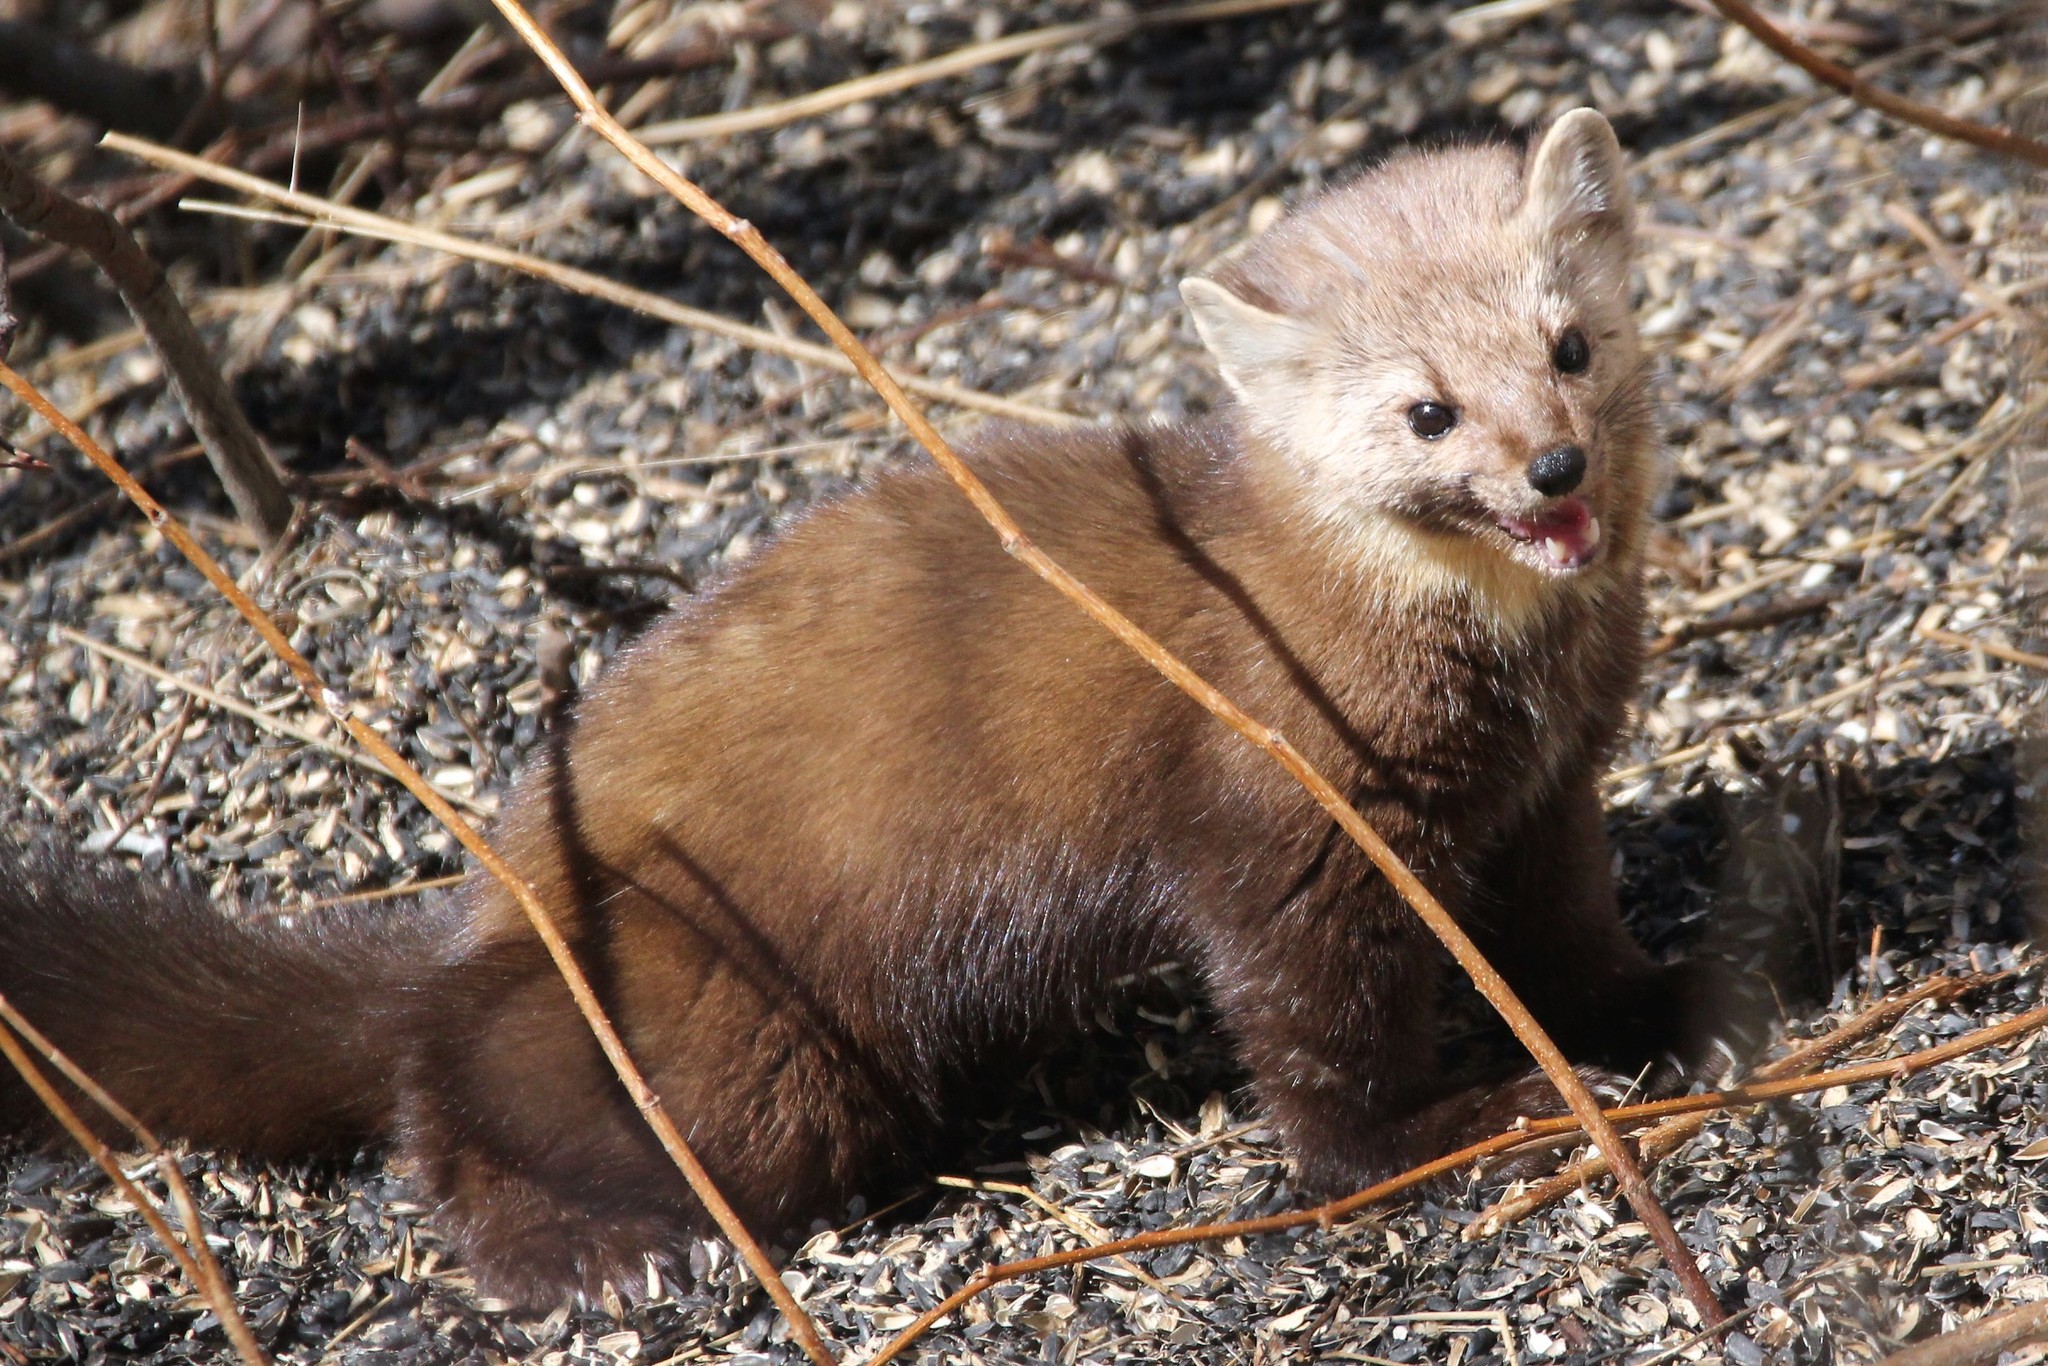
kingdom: Animalia
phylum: Chordata
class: Mammalia
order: Carnivora
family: Mustelidae
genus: Martes
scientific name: Martes americana
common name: American marten
